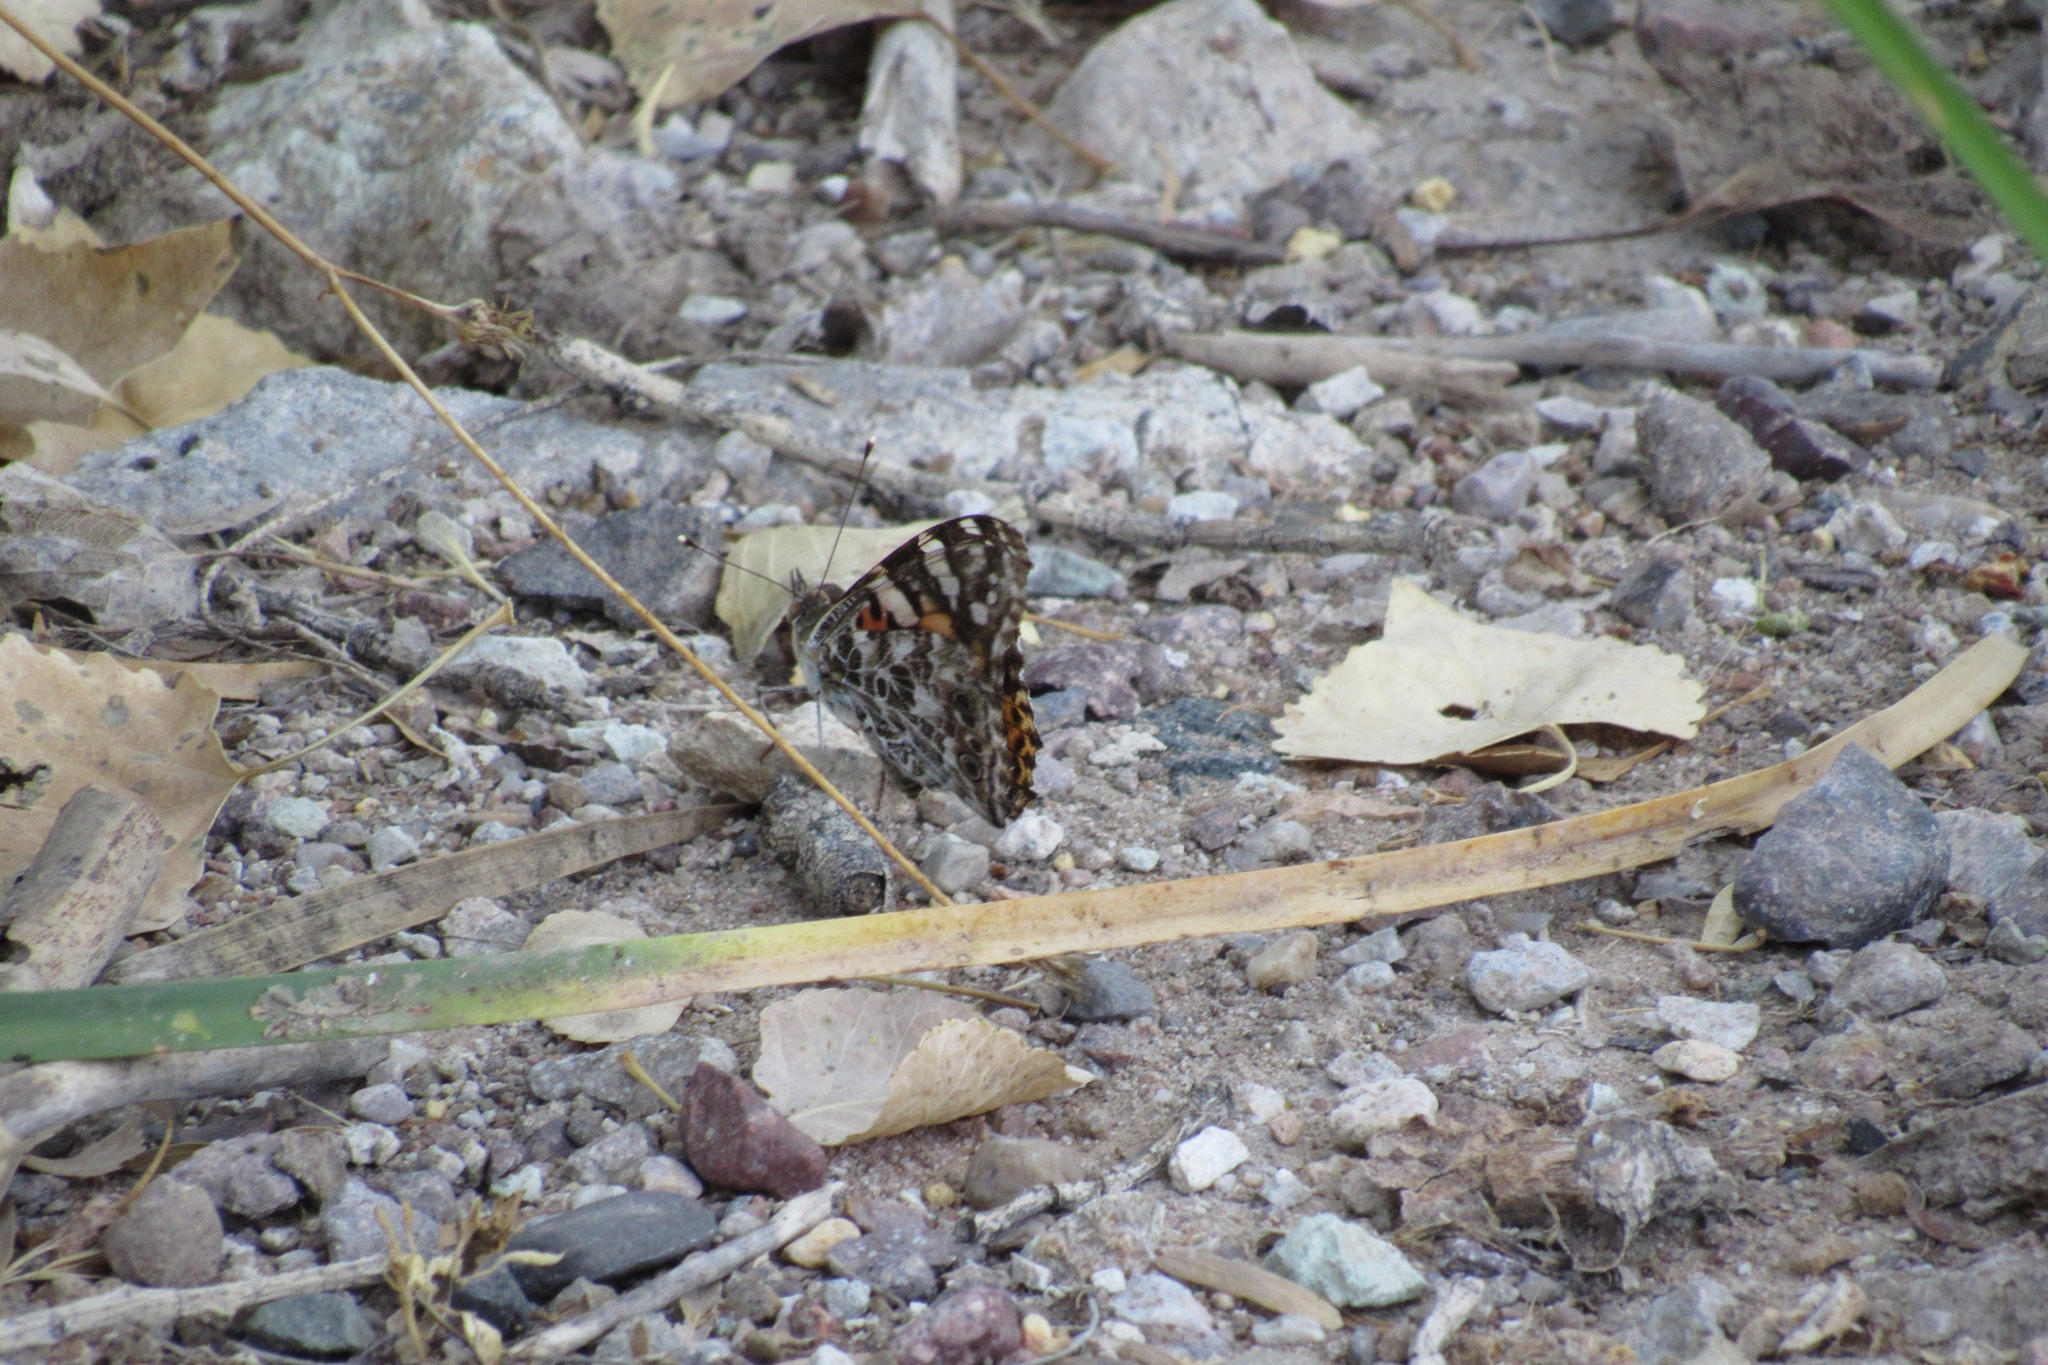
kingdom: Animalia
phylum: Arthropoda
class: Insecta
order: Lepidoptera
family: Nymphalidae
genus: Vanessa
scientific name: Vanessa cardui
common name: Painted lady
